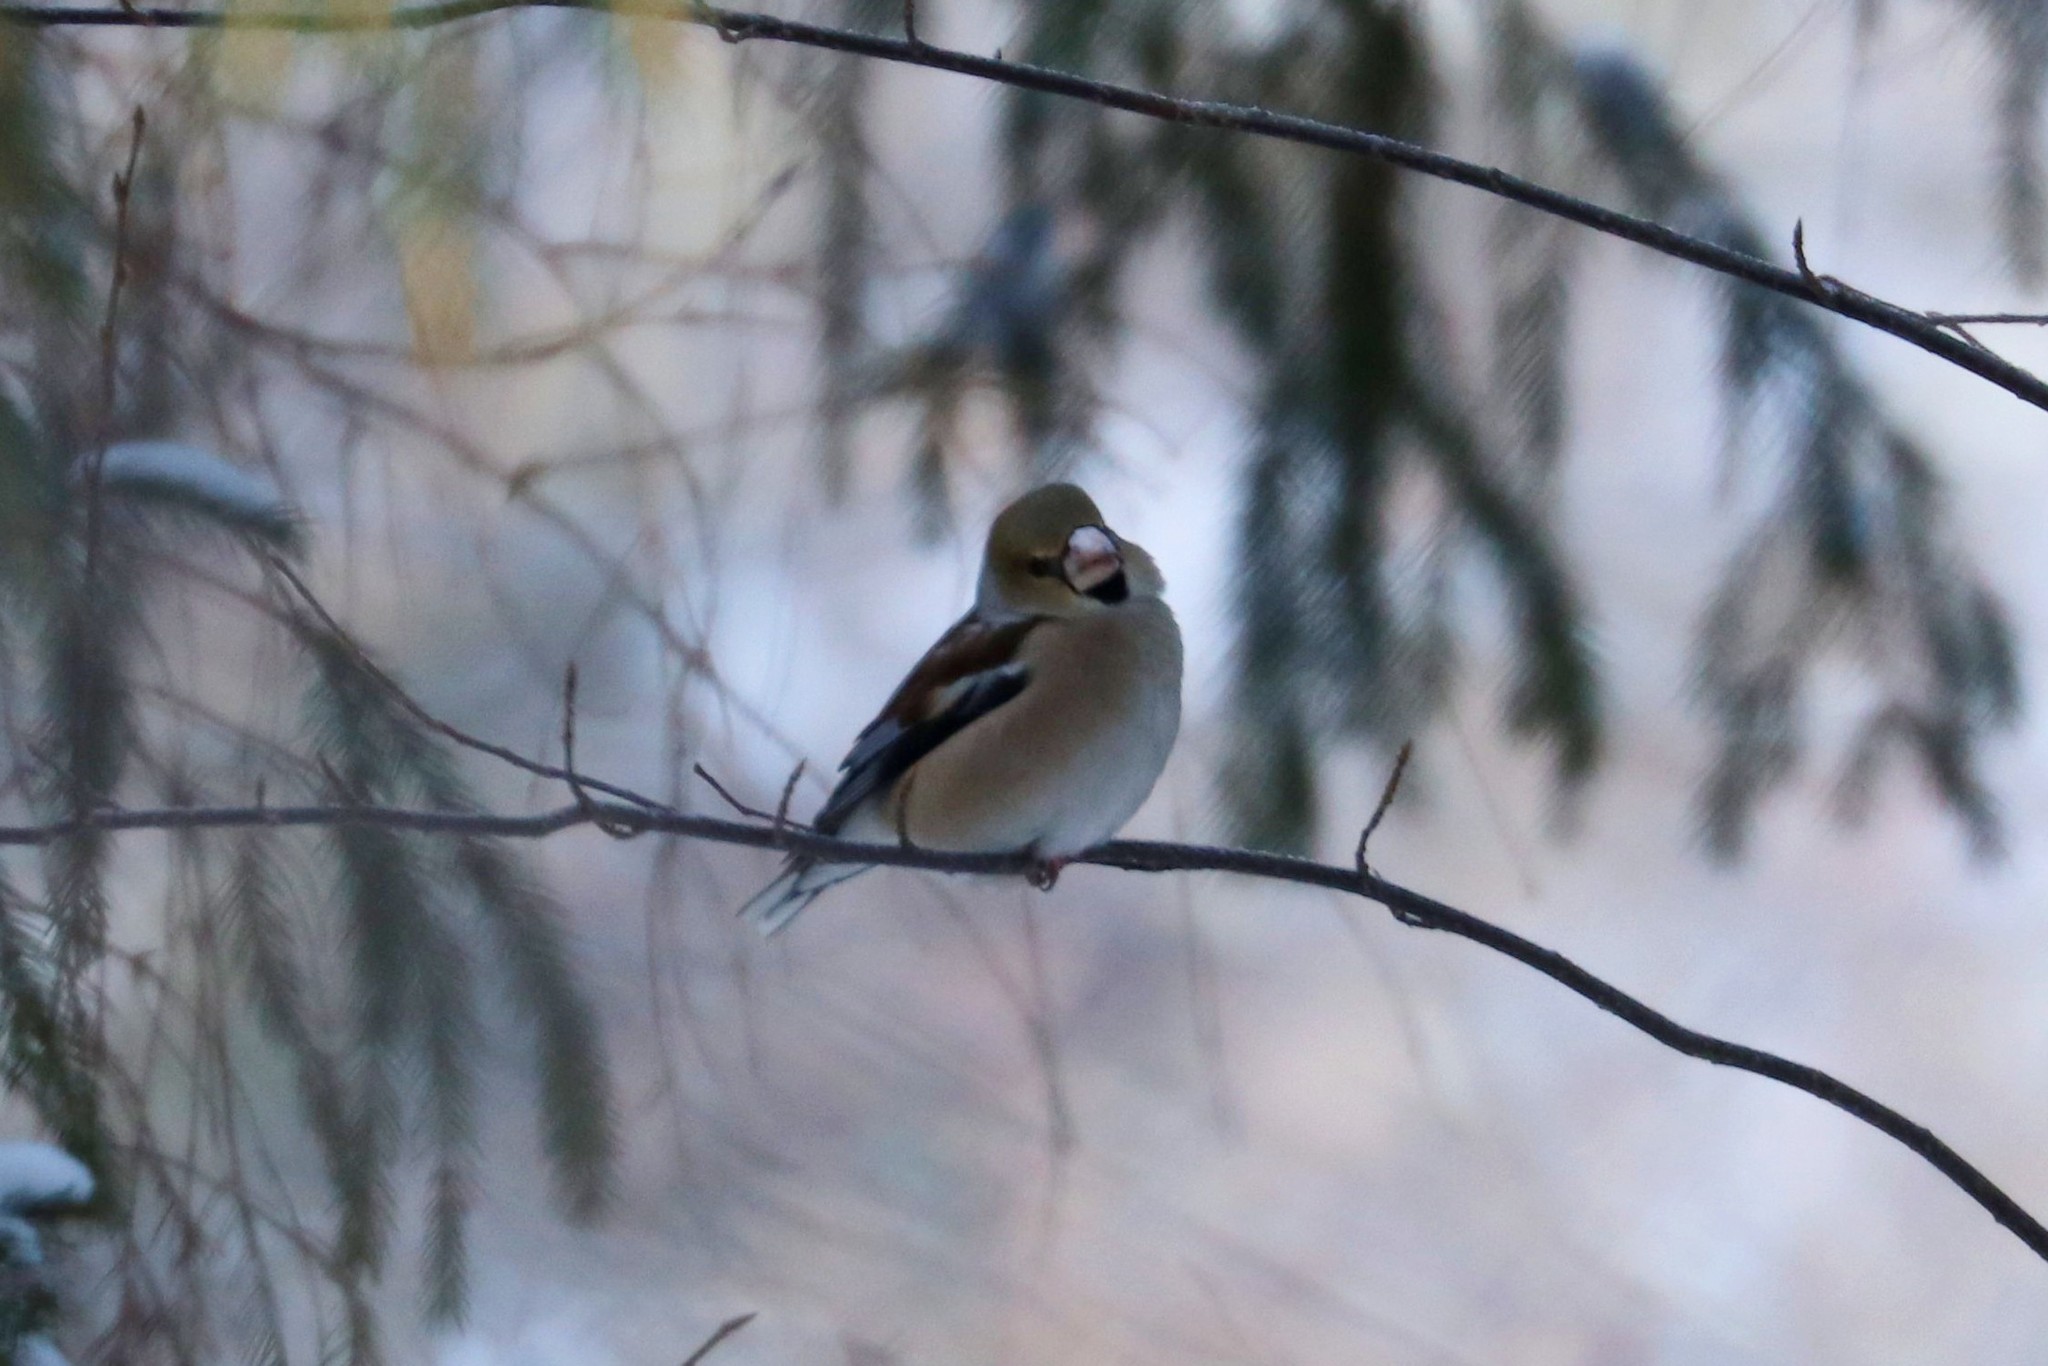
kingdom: Animalia
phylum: Chordata
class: Aves
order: Passeriformes
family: Fringillidae
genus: Coccothraustes
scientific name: Coccothraustes coccothraustes
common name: Hawfinch
